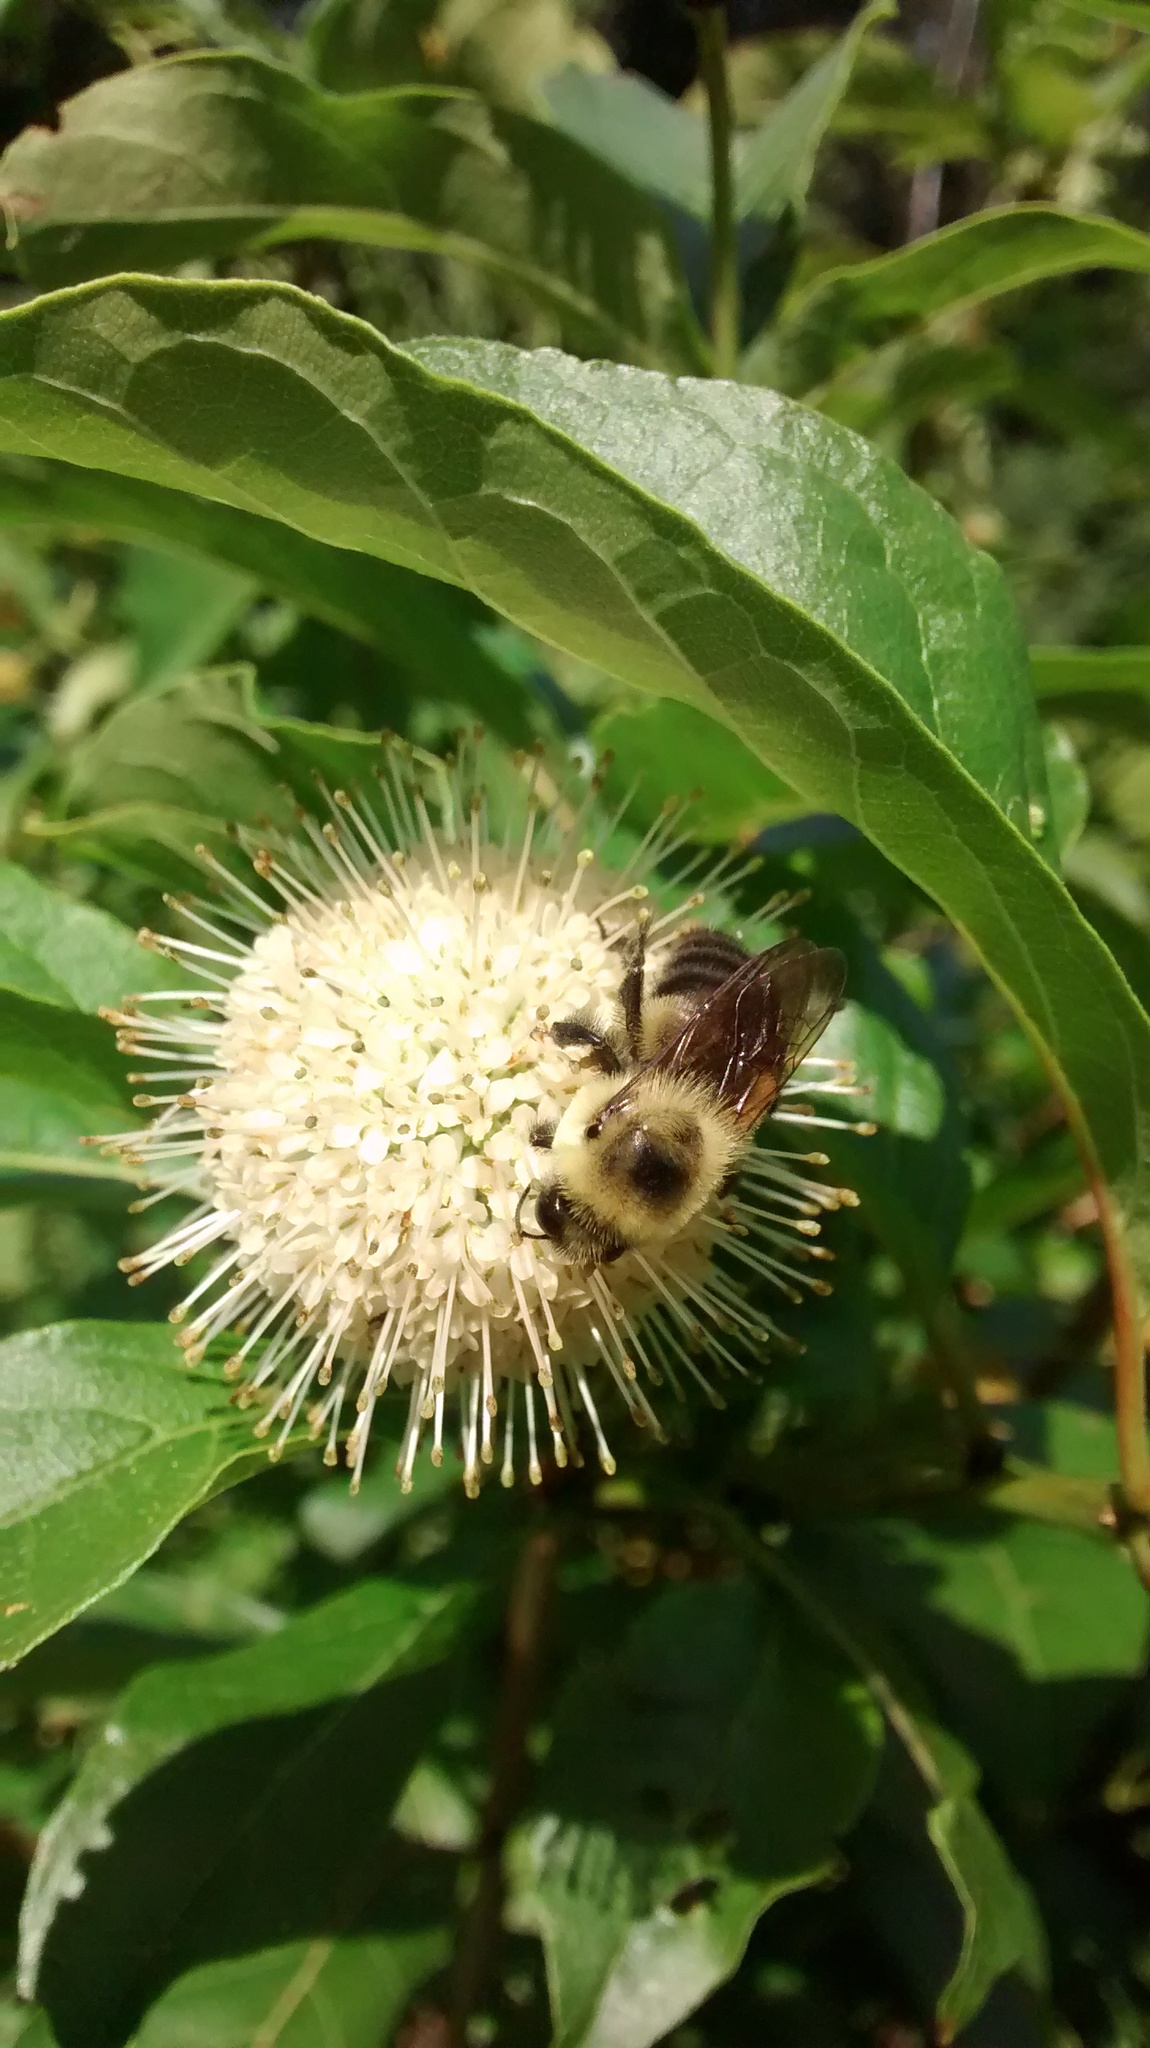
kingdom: Animalia
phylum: Arthropoda
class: Insecta
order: Hymenoptera
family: Apidae
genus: Bombus
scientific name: Bombus griseocollis
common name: Brown-belted bumble bee
